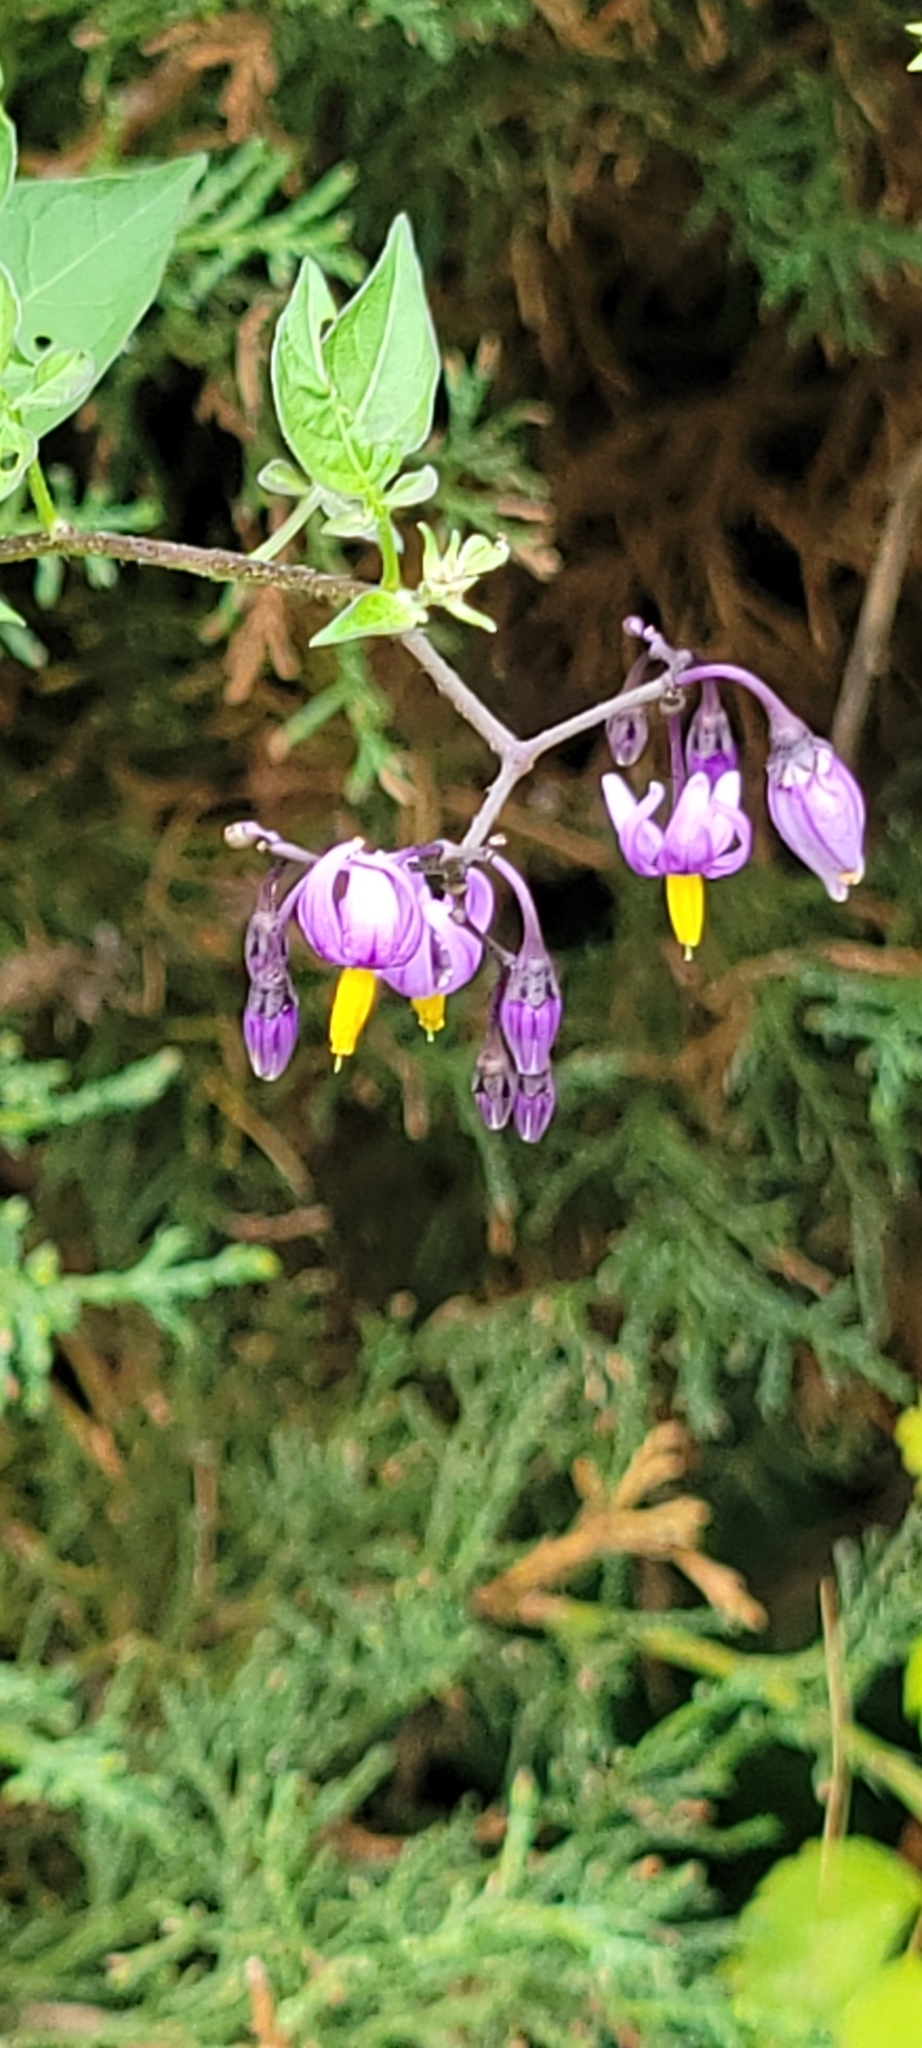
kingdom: Plantae
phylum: Tracheophyta
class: Magnoliopsida
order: Solanales
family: Solanaceae
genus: Solanum
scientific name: Solanum dulcamara
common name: Climbing nightshade
